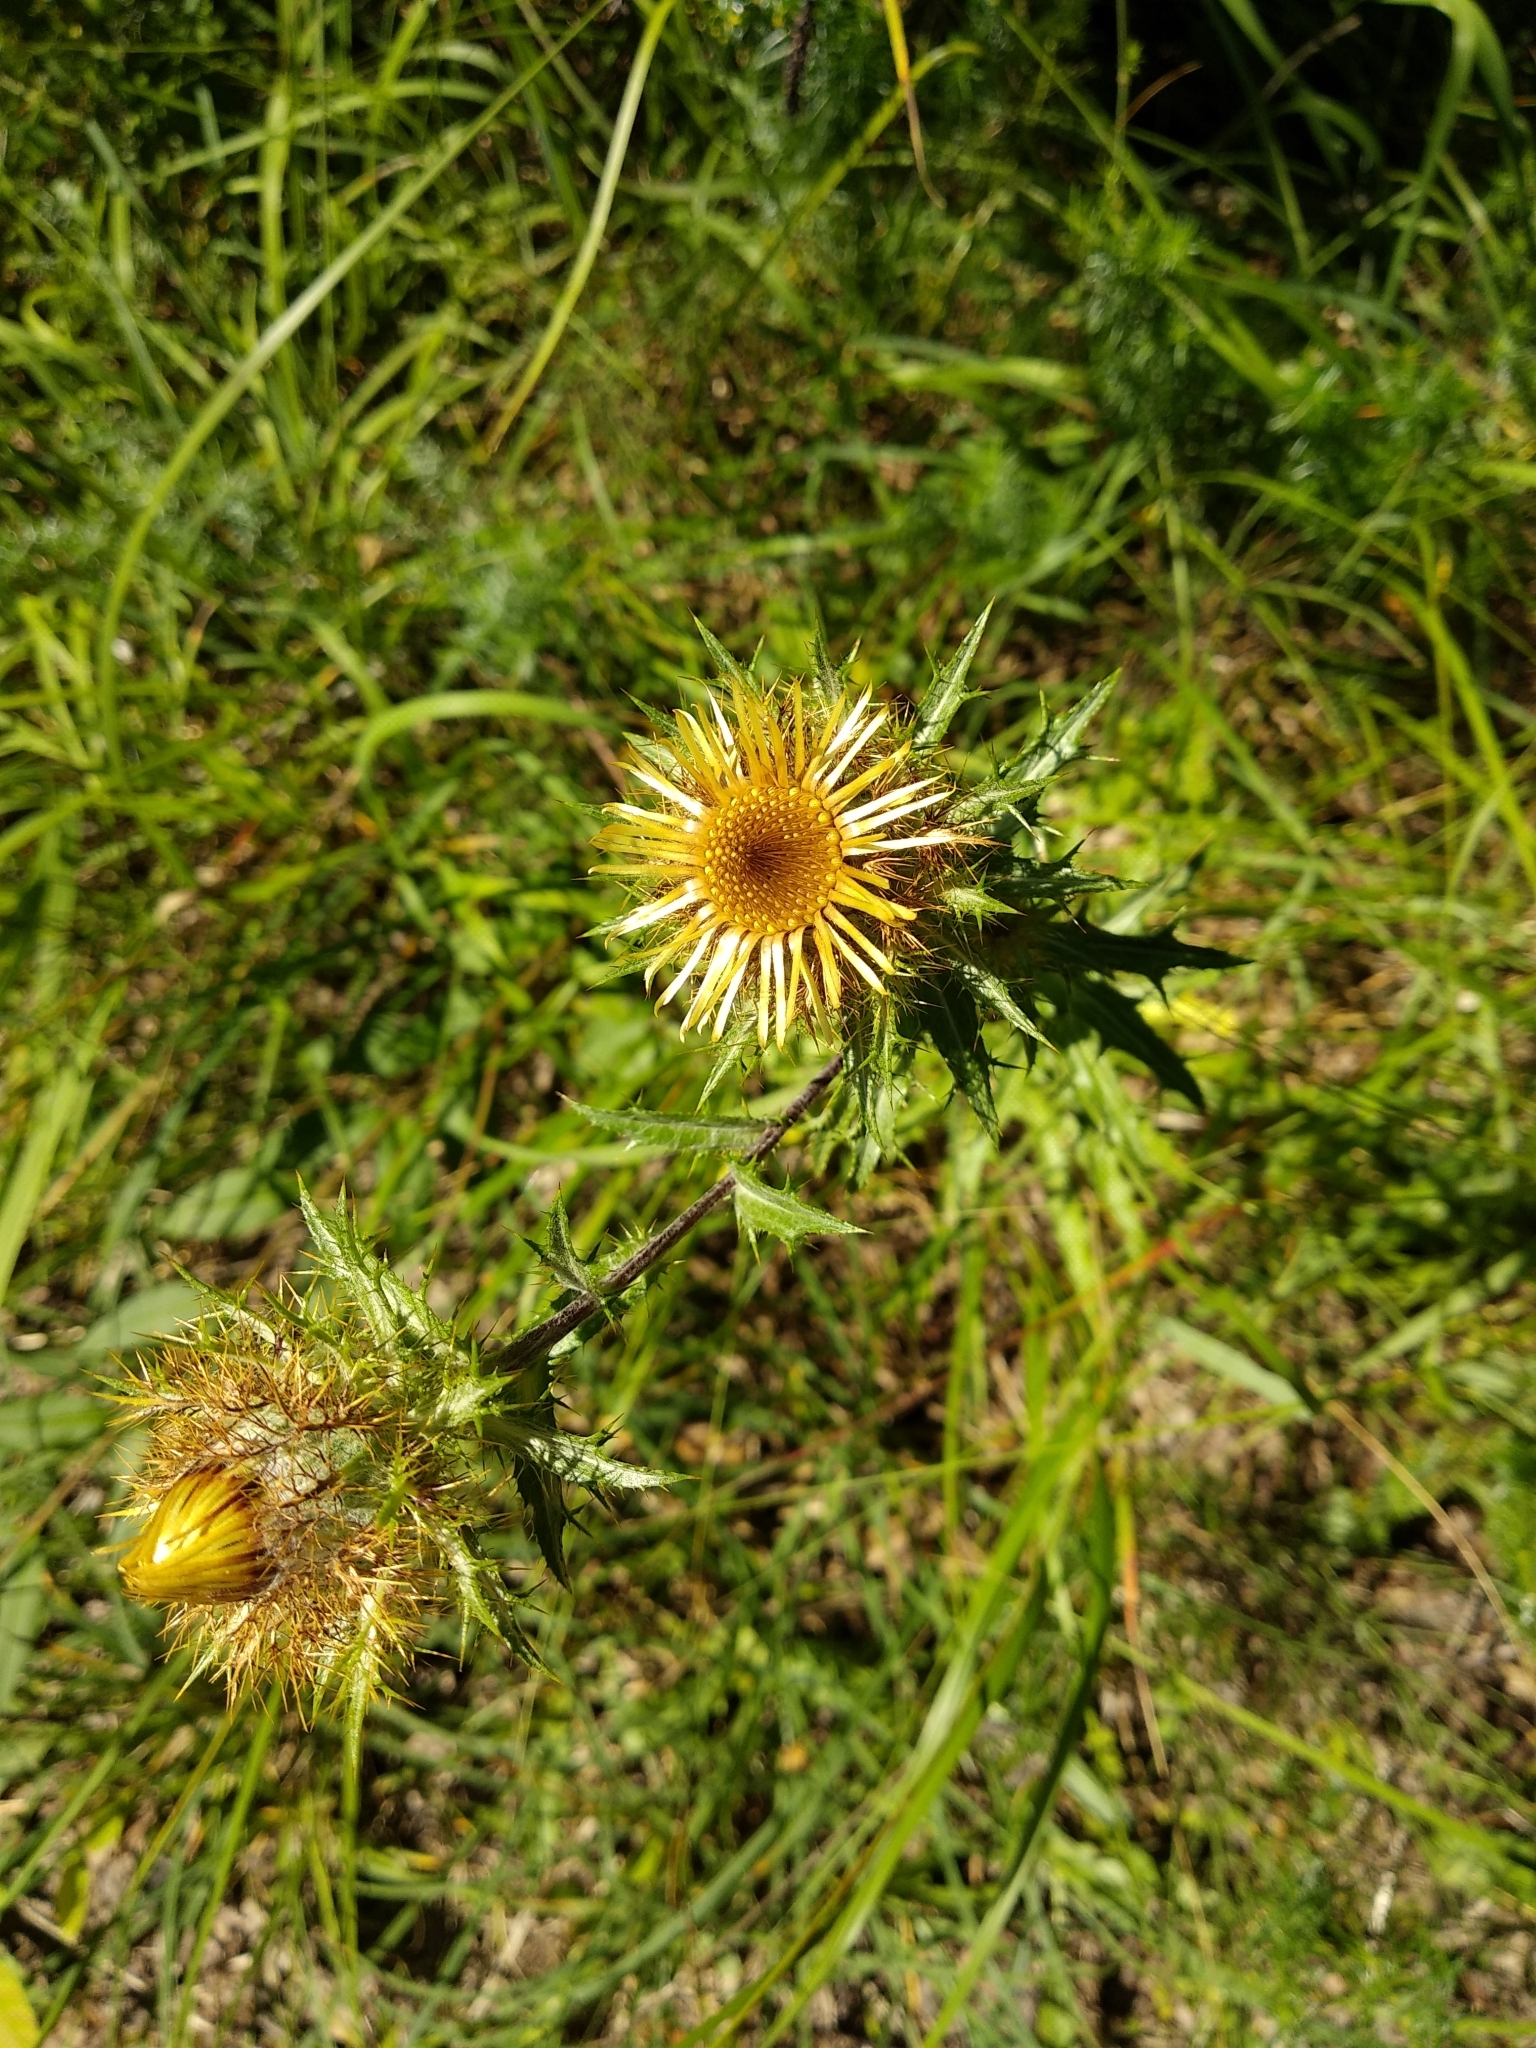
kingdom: Plantae
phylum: Tracheophyta
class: Magnoliopsida
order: Asterales
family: Asteraceae
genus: Carlina
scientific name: Carlina vulgaris
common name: Carline thistle
